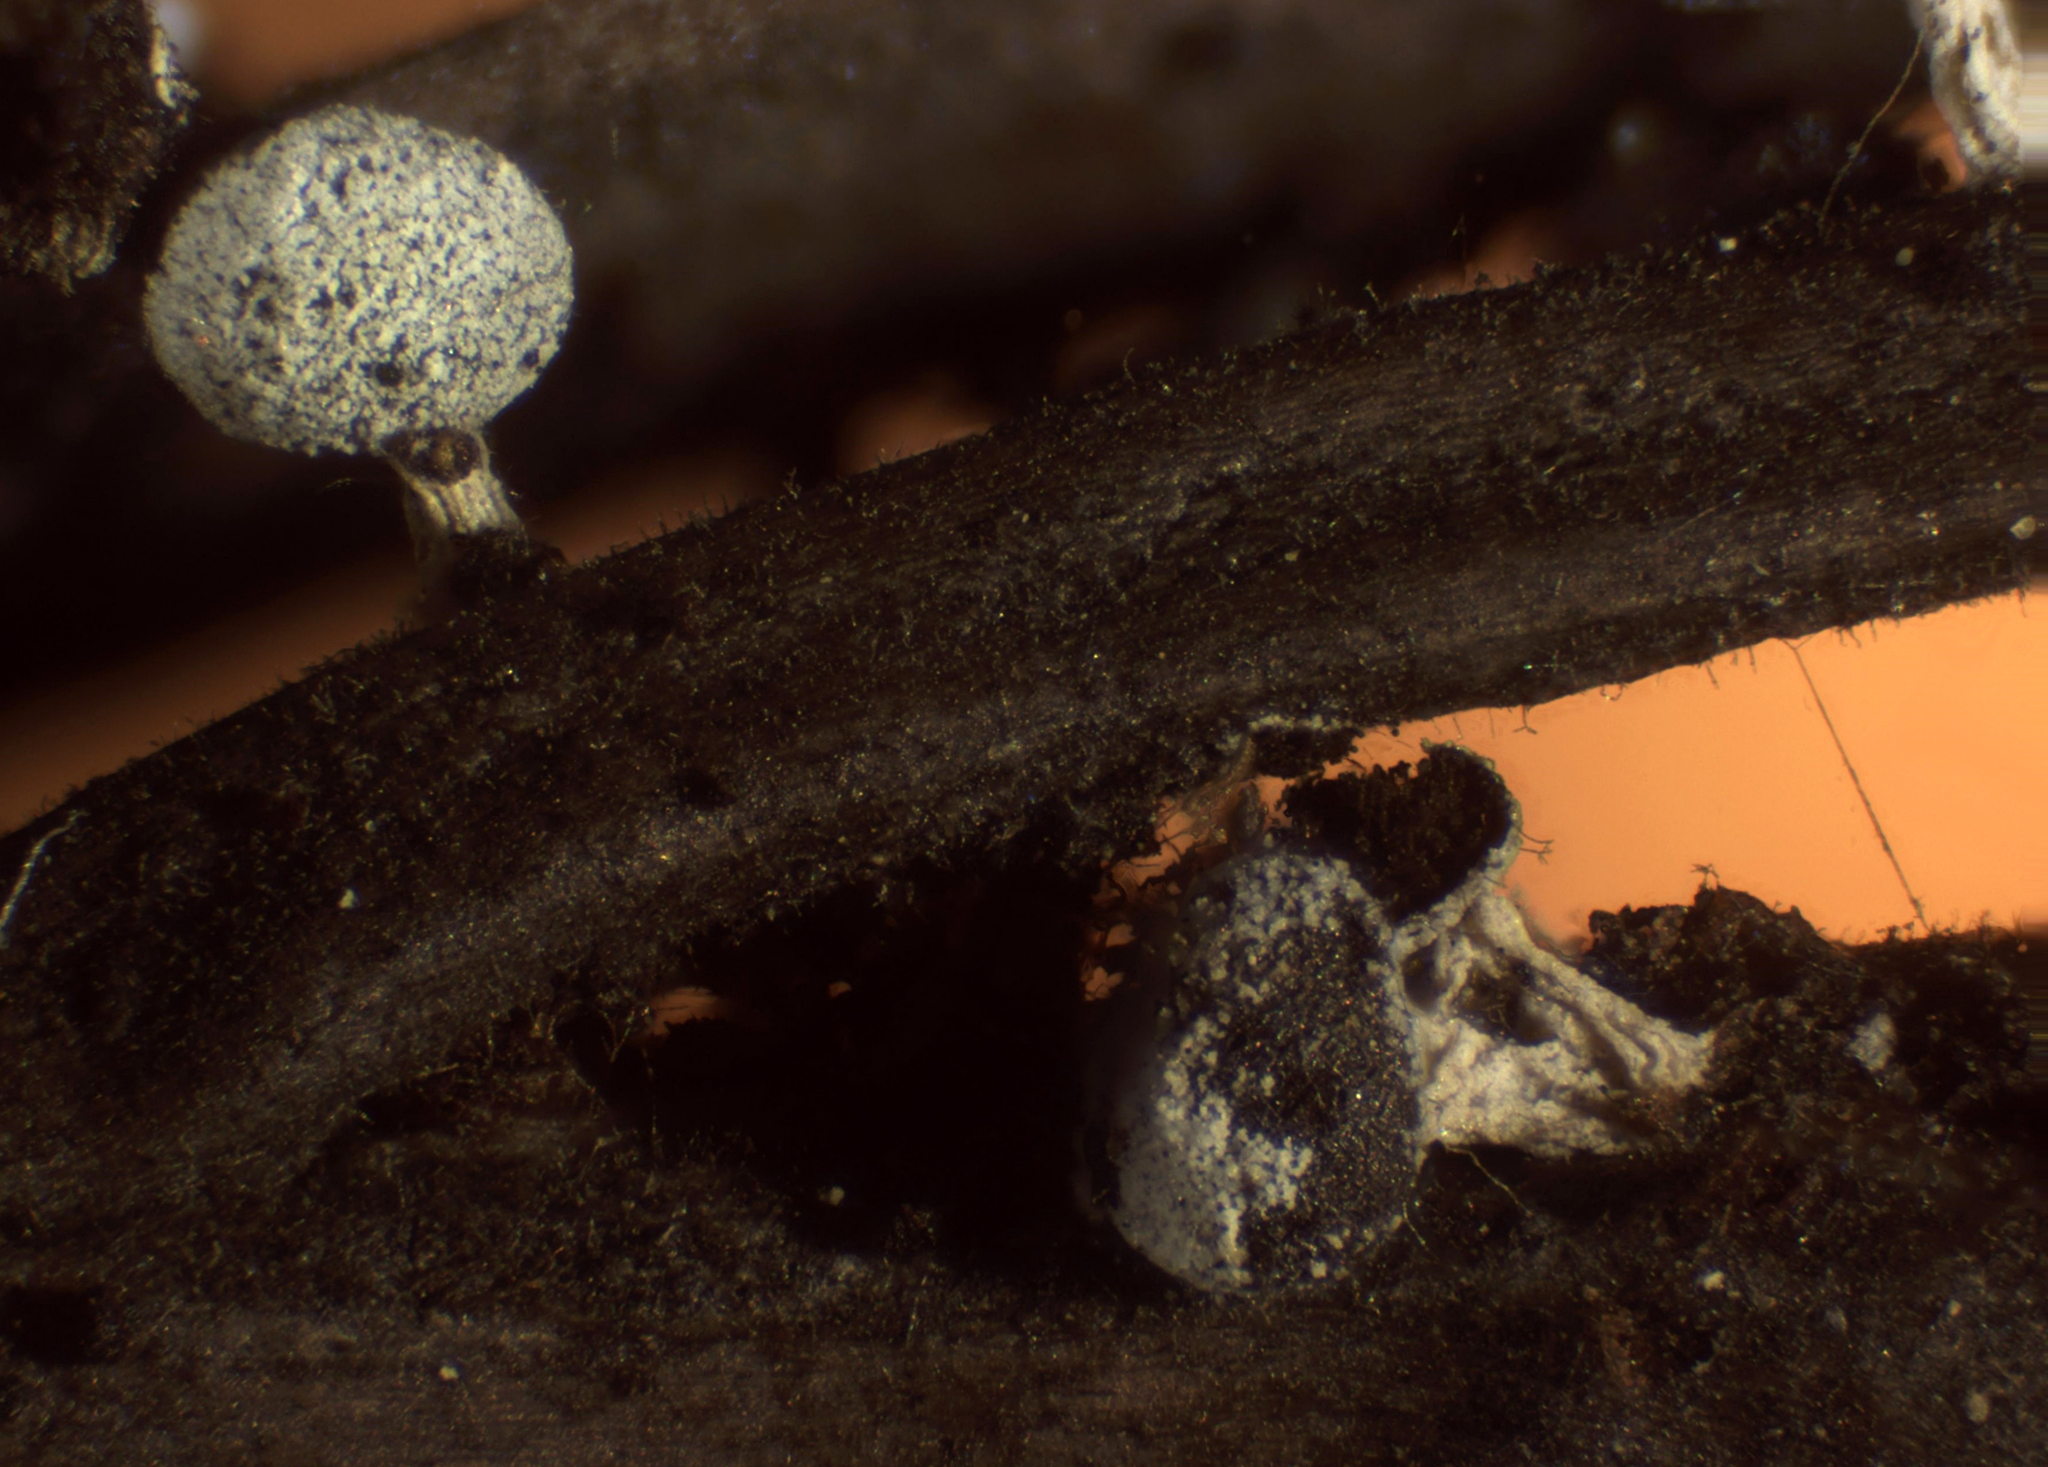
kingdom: Protozoa
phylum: Mycetozoa
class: Myxomycetes
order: Physarales
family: Didymiaceae
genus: Didymium
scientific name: Didymium squamulosum
